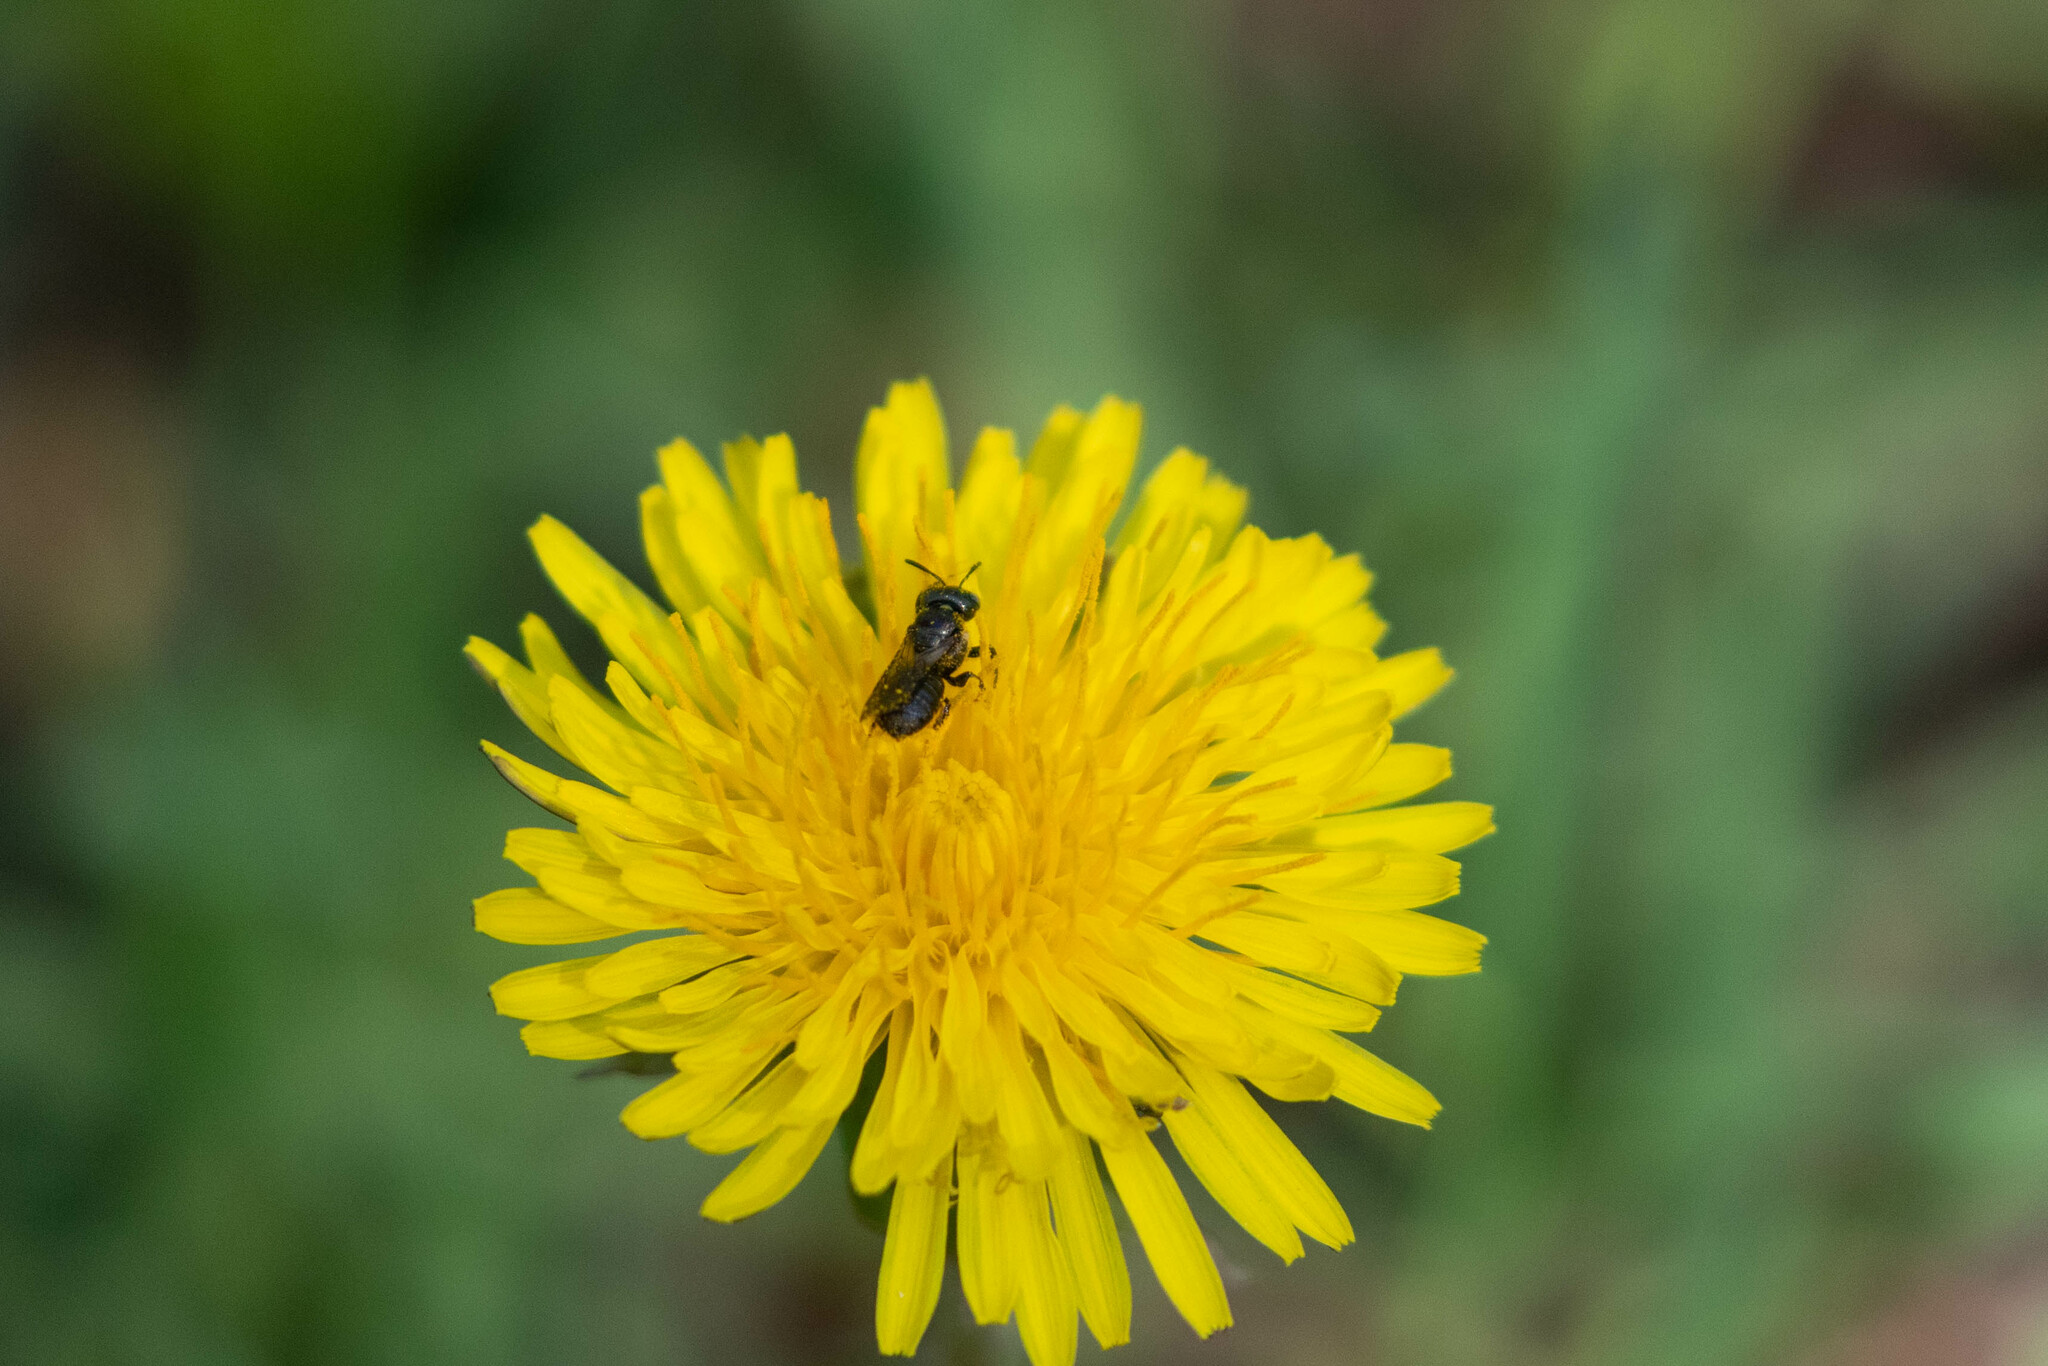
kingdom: Plantae
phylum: Tracheophyta
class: Magnoliopsida
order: Asterales
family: Asteraceae
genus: Taraxacum
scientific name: Taraxacum officinale
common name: Common dandelion
